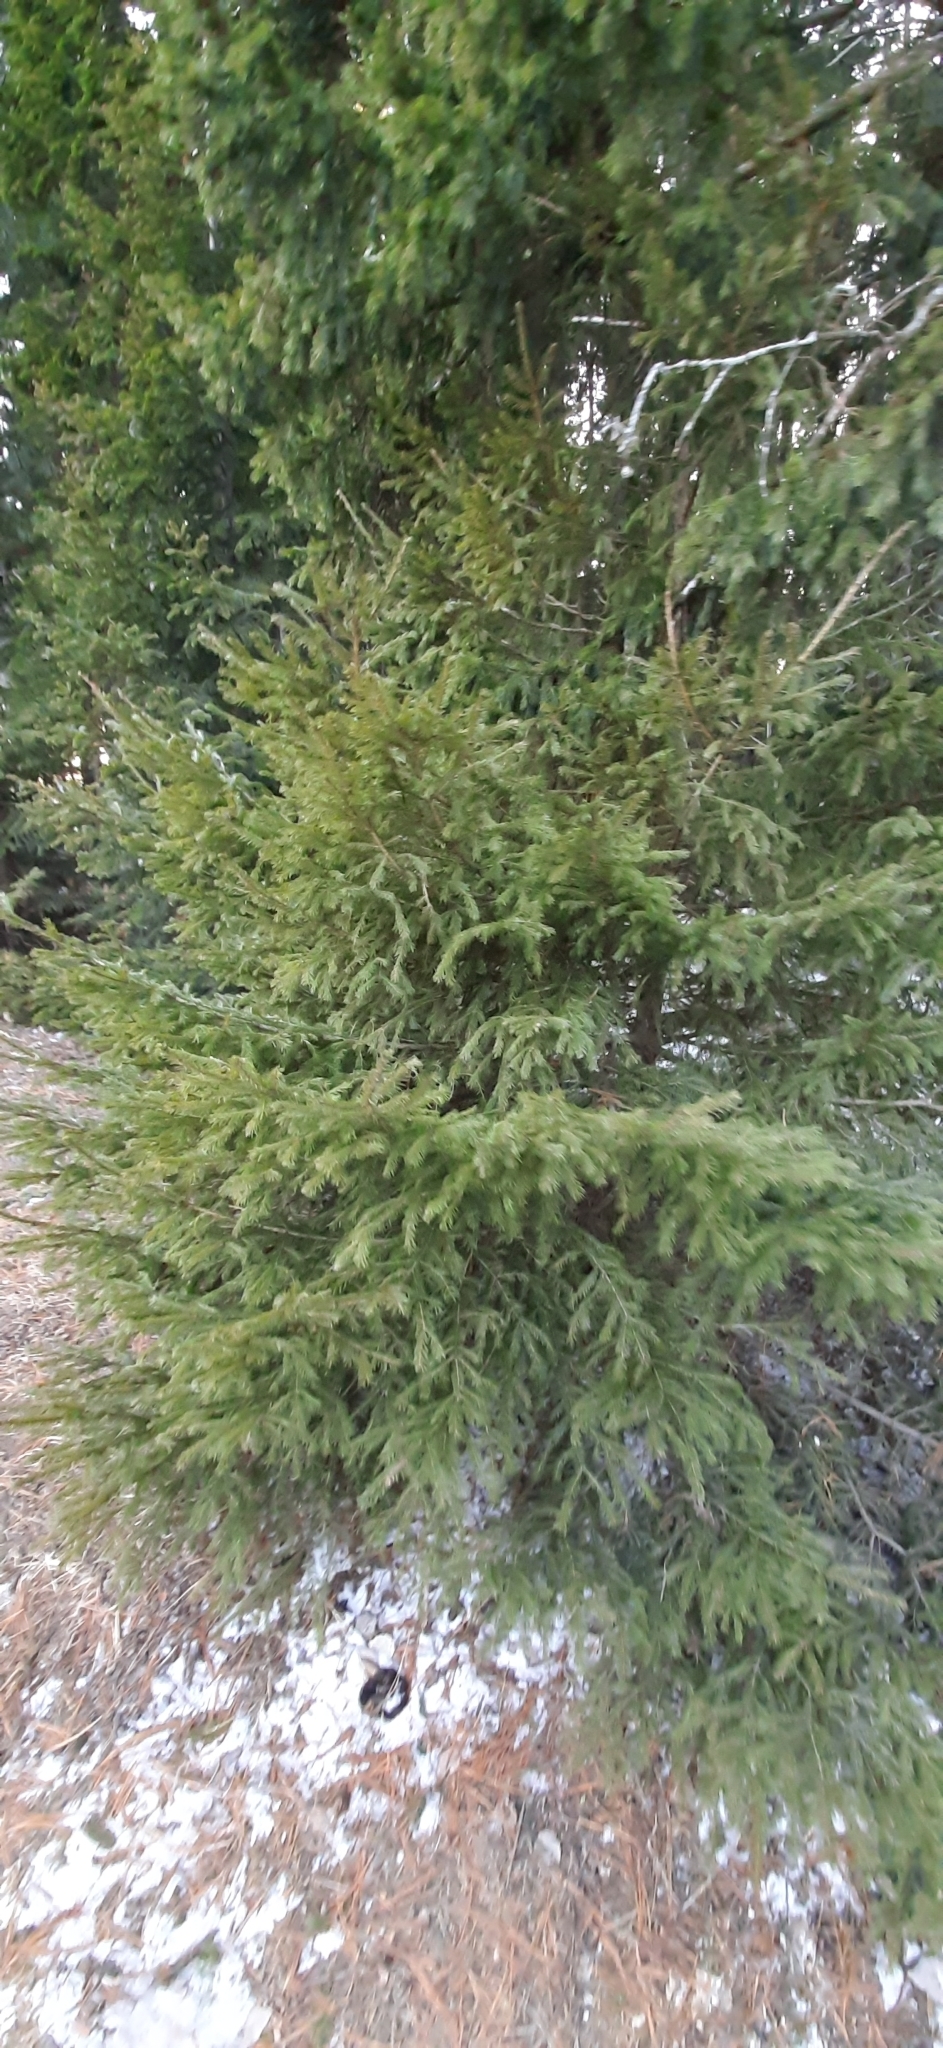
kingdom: Plantae
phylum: Tracheophyta
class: Pinopsida
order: Pinales
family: Pinaceae
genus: Picea
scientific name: Picea obovata
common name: Siberian spruce
